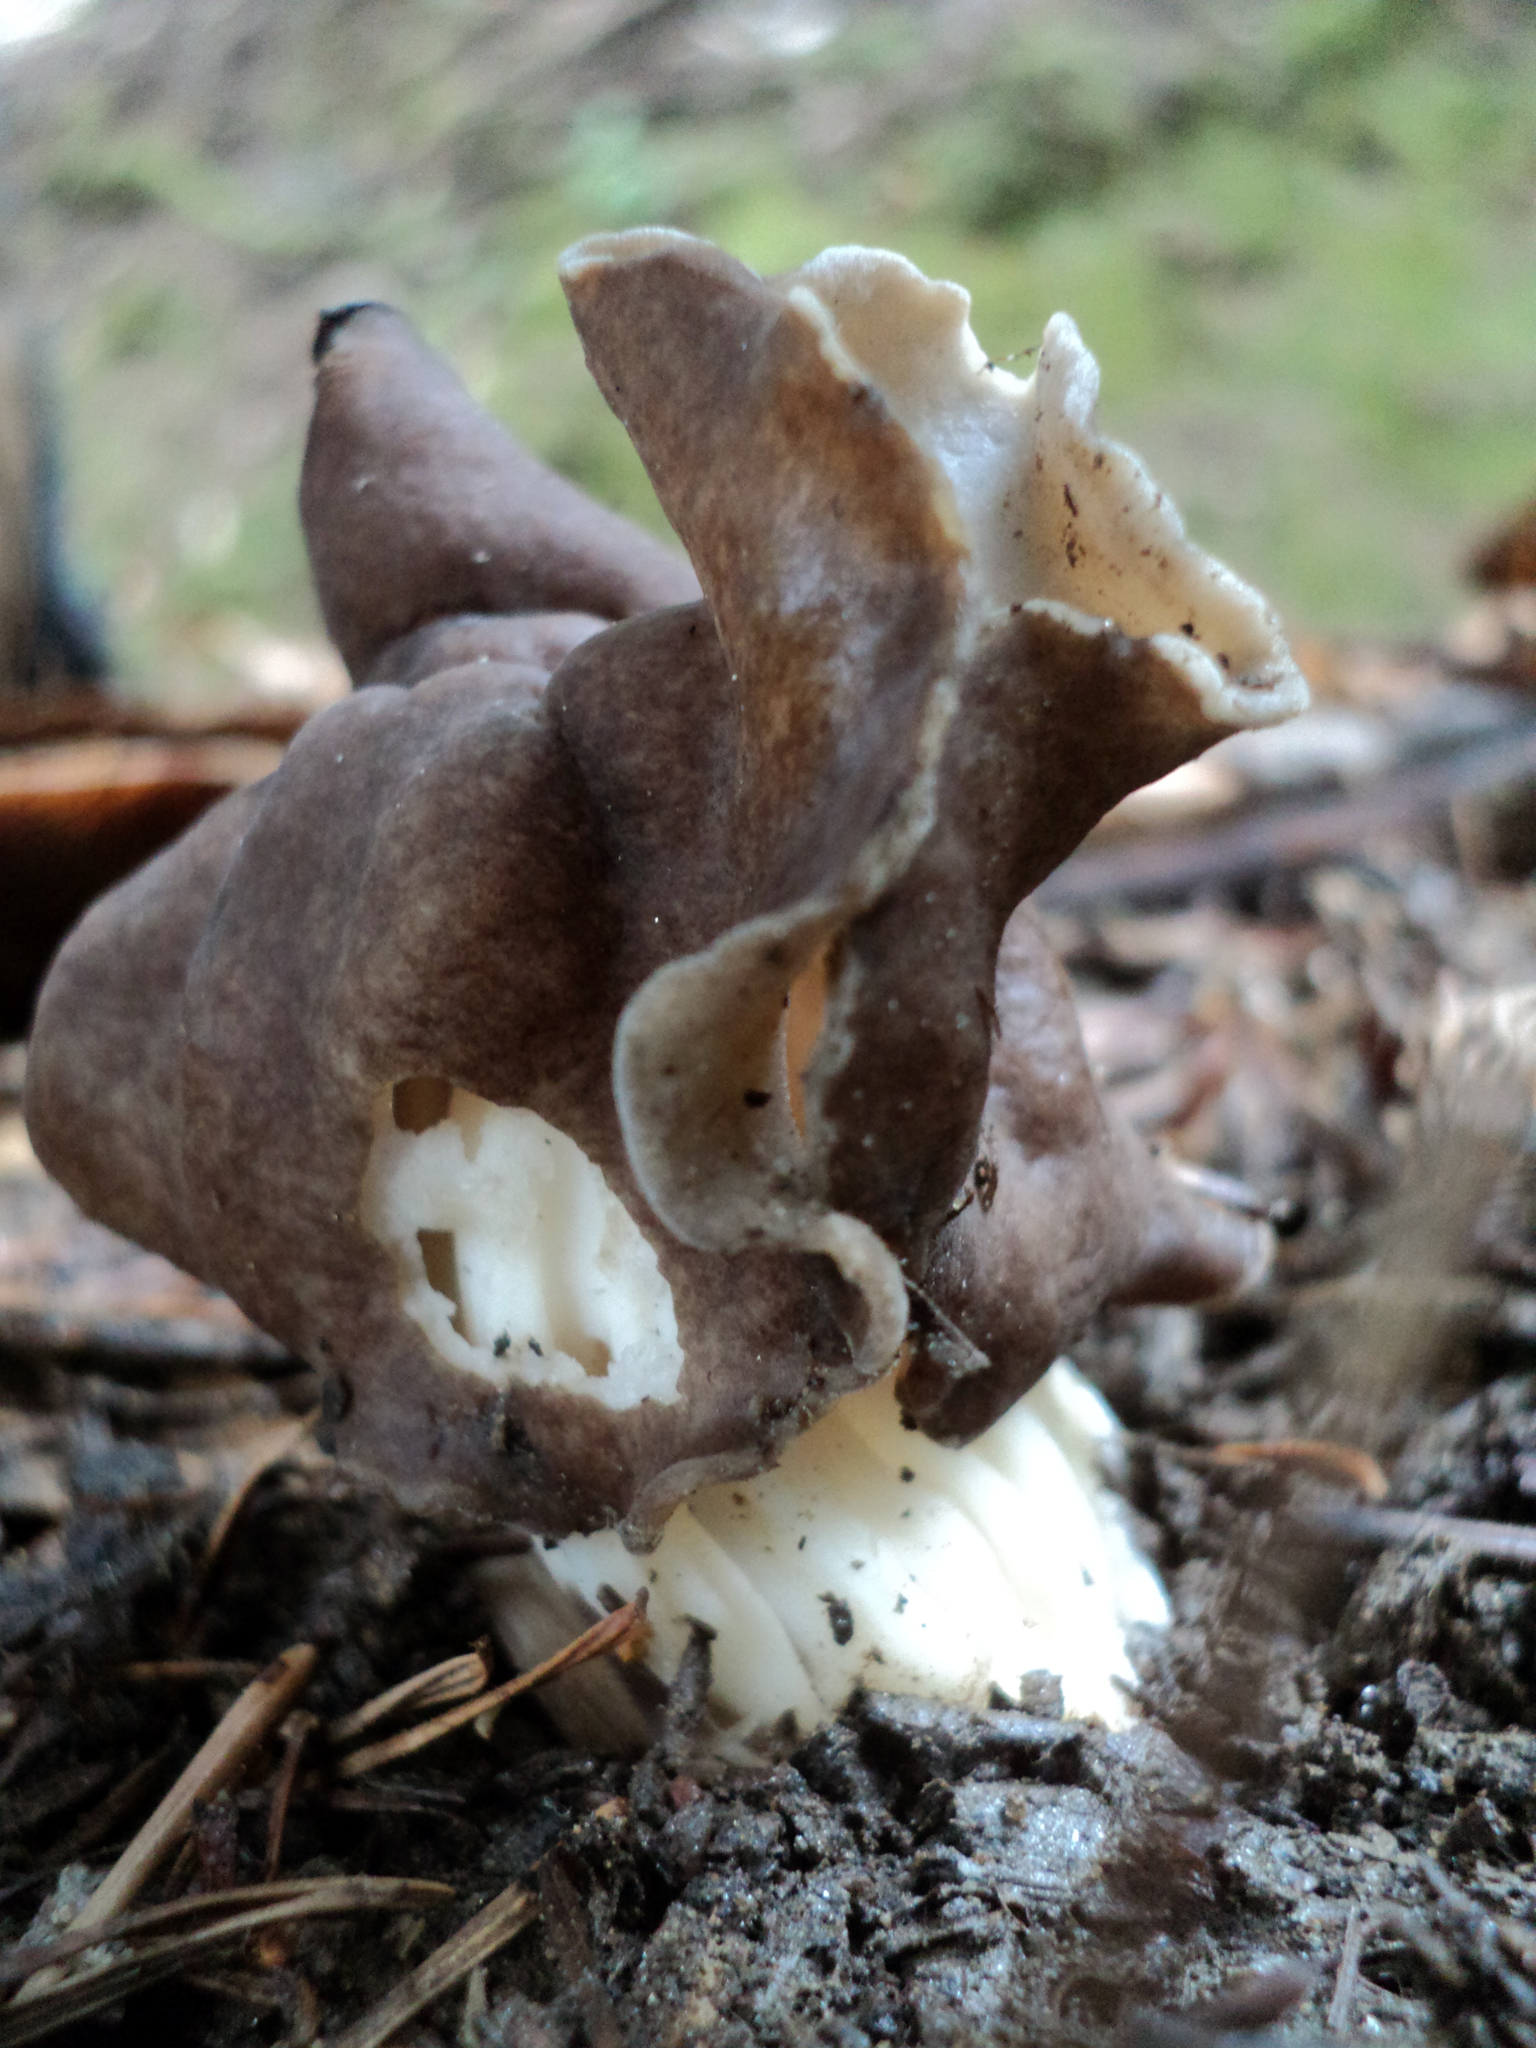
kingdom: Fungi
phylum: Ascomycota
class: Pezizomycetes
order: Pezizales
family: Helvellaceae
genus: Helvella
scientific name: Helvella maculata
